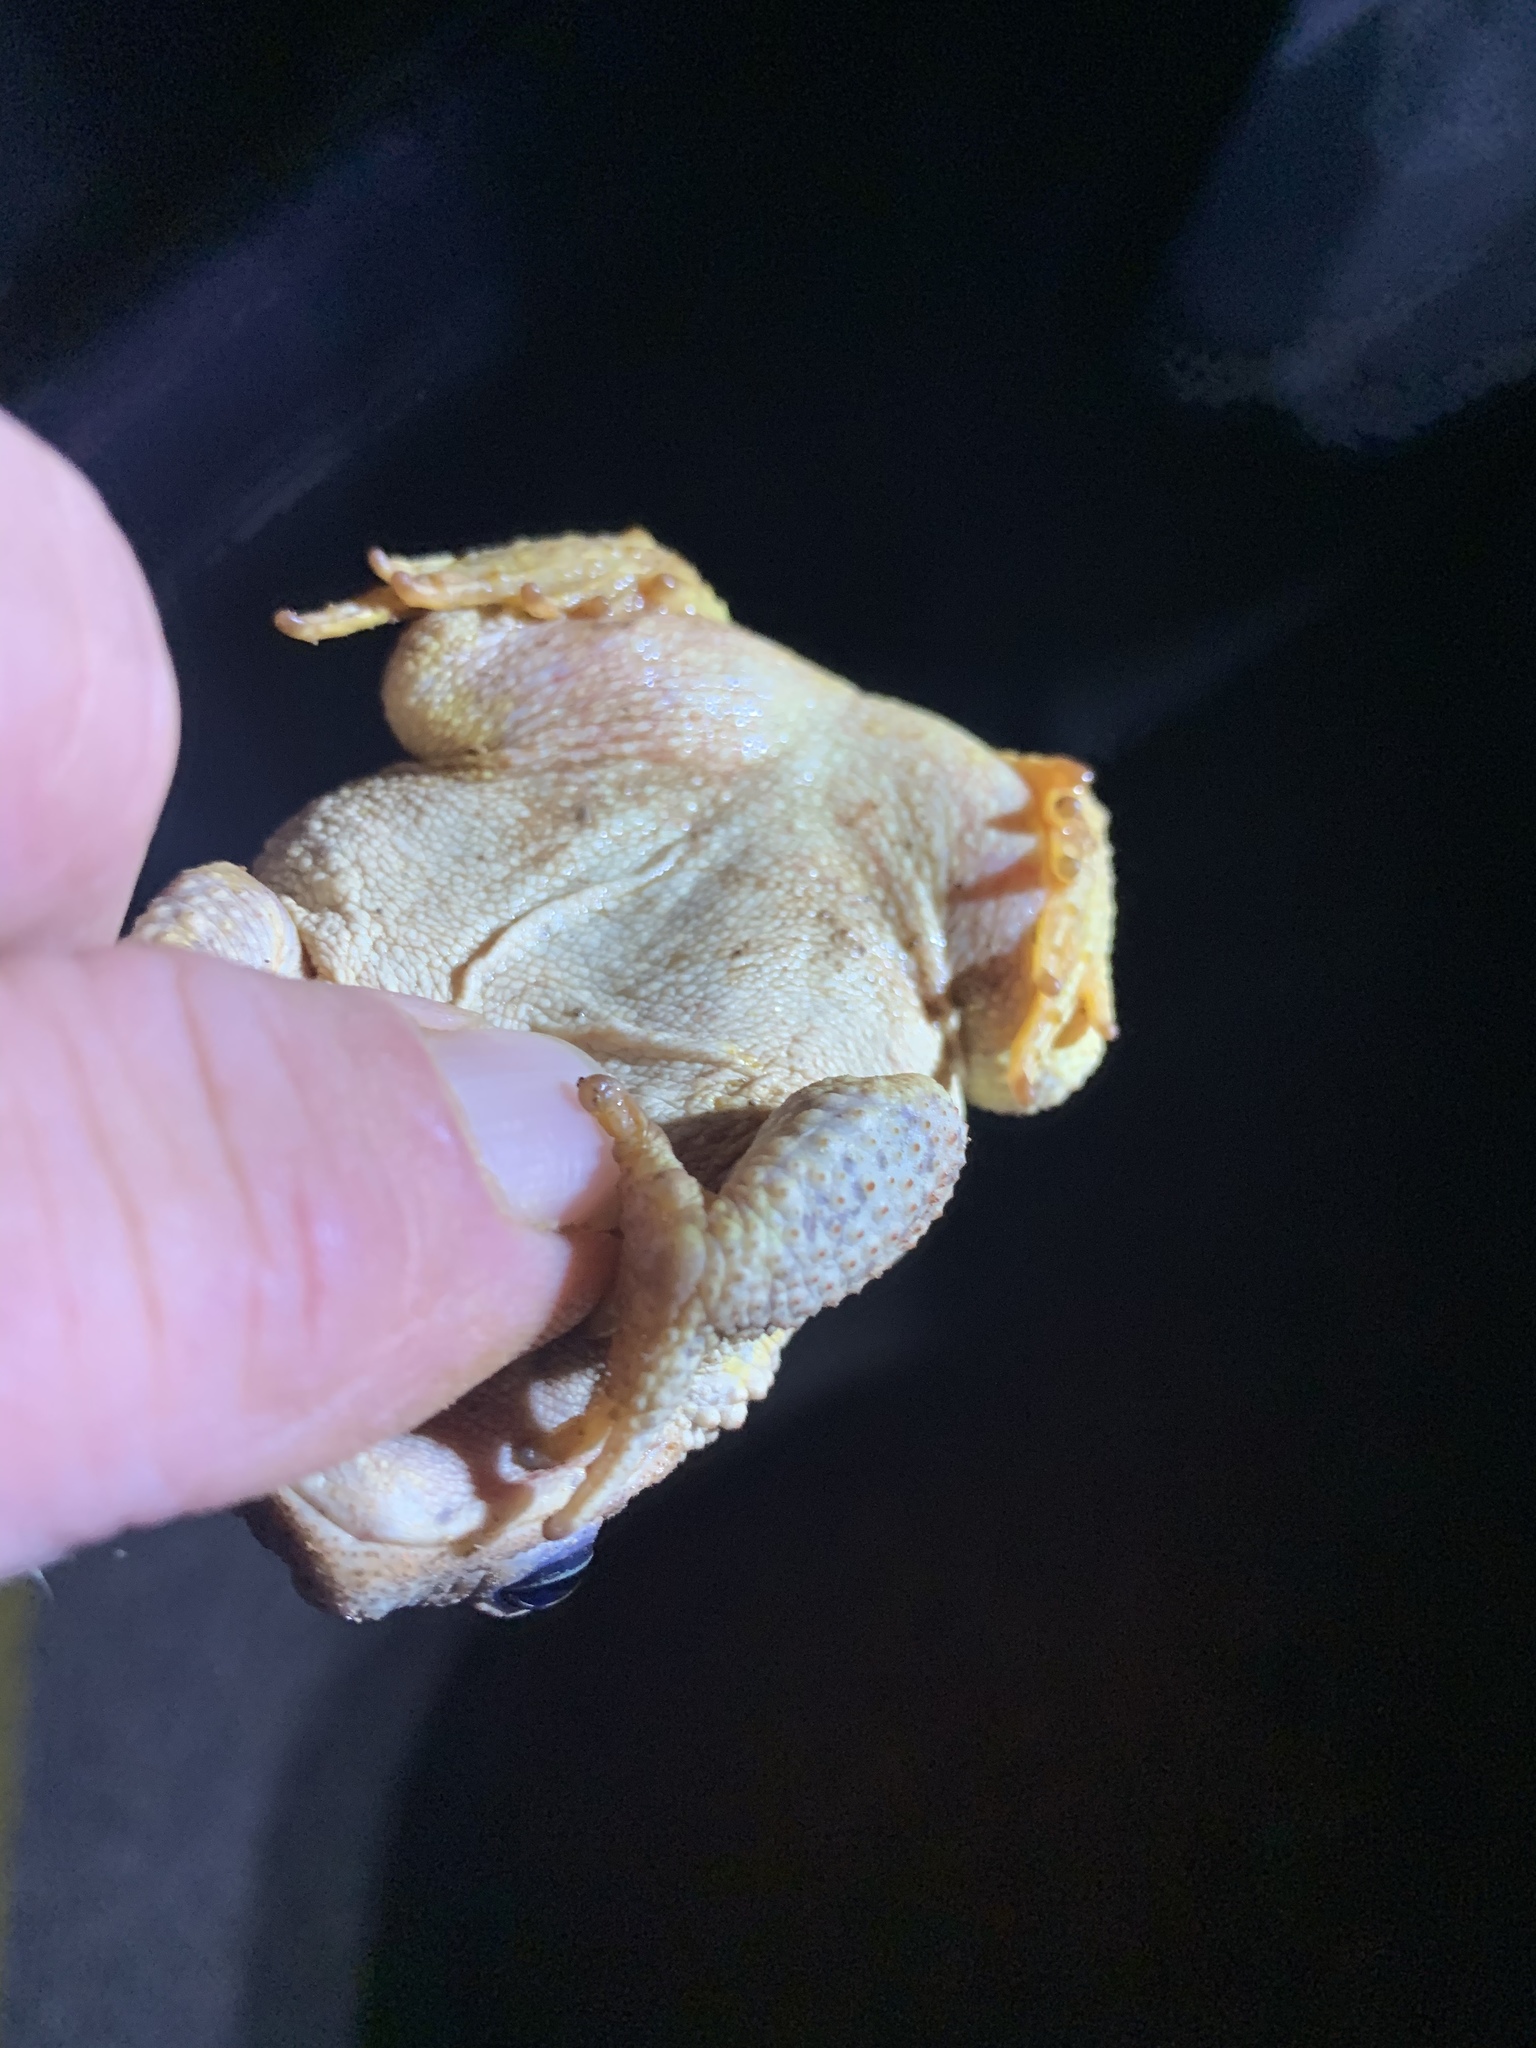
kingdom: Animalia
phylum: Chordata
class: Amphibia
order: Anura
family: Bufonidae
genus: Anaxyrus
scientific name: Anaxyrus punctatus
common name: Red-spotted toad
